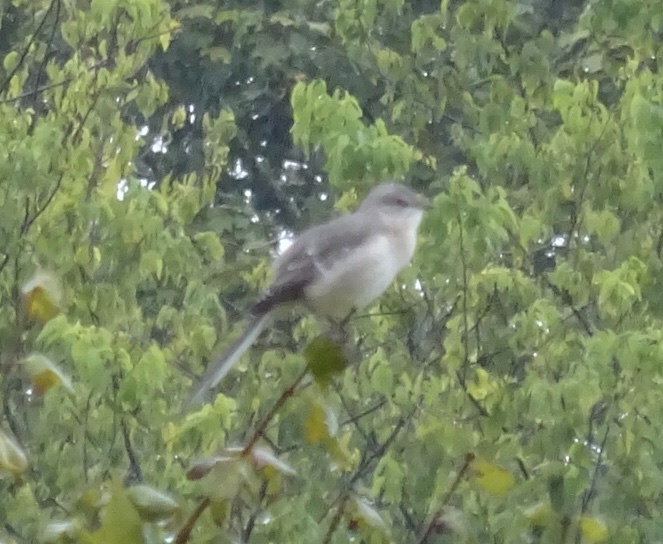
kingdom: Animalia
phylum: Chordata
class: Aves
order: Passeriformes
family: Mimidae
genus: Mimus
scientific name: Mimus polyglottos
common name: Northern mockingbird
